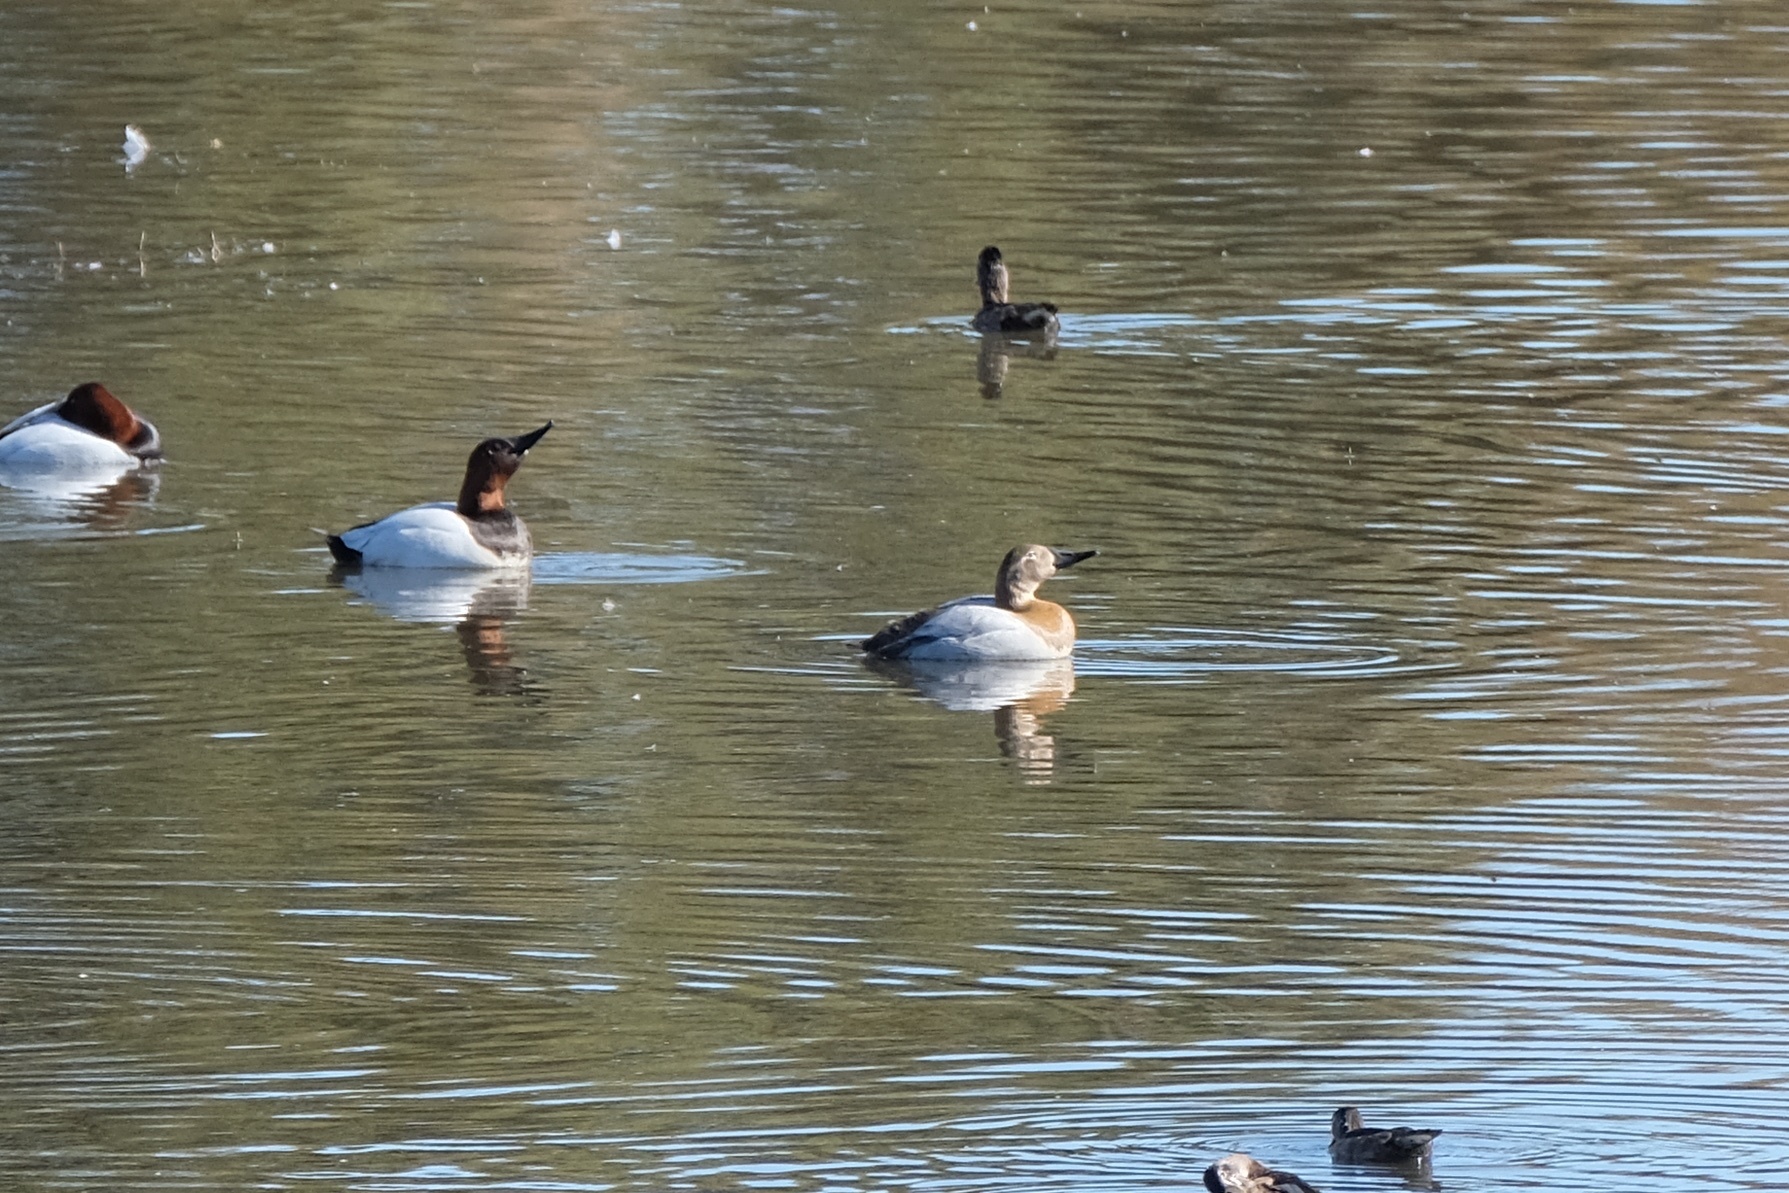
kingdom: Animalia
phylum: Chordata
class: Aves
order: Anseriformes
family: Anatidae
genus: Aythya
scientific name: Aythya valisineria
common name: Canvasback
